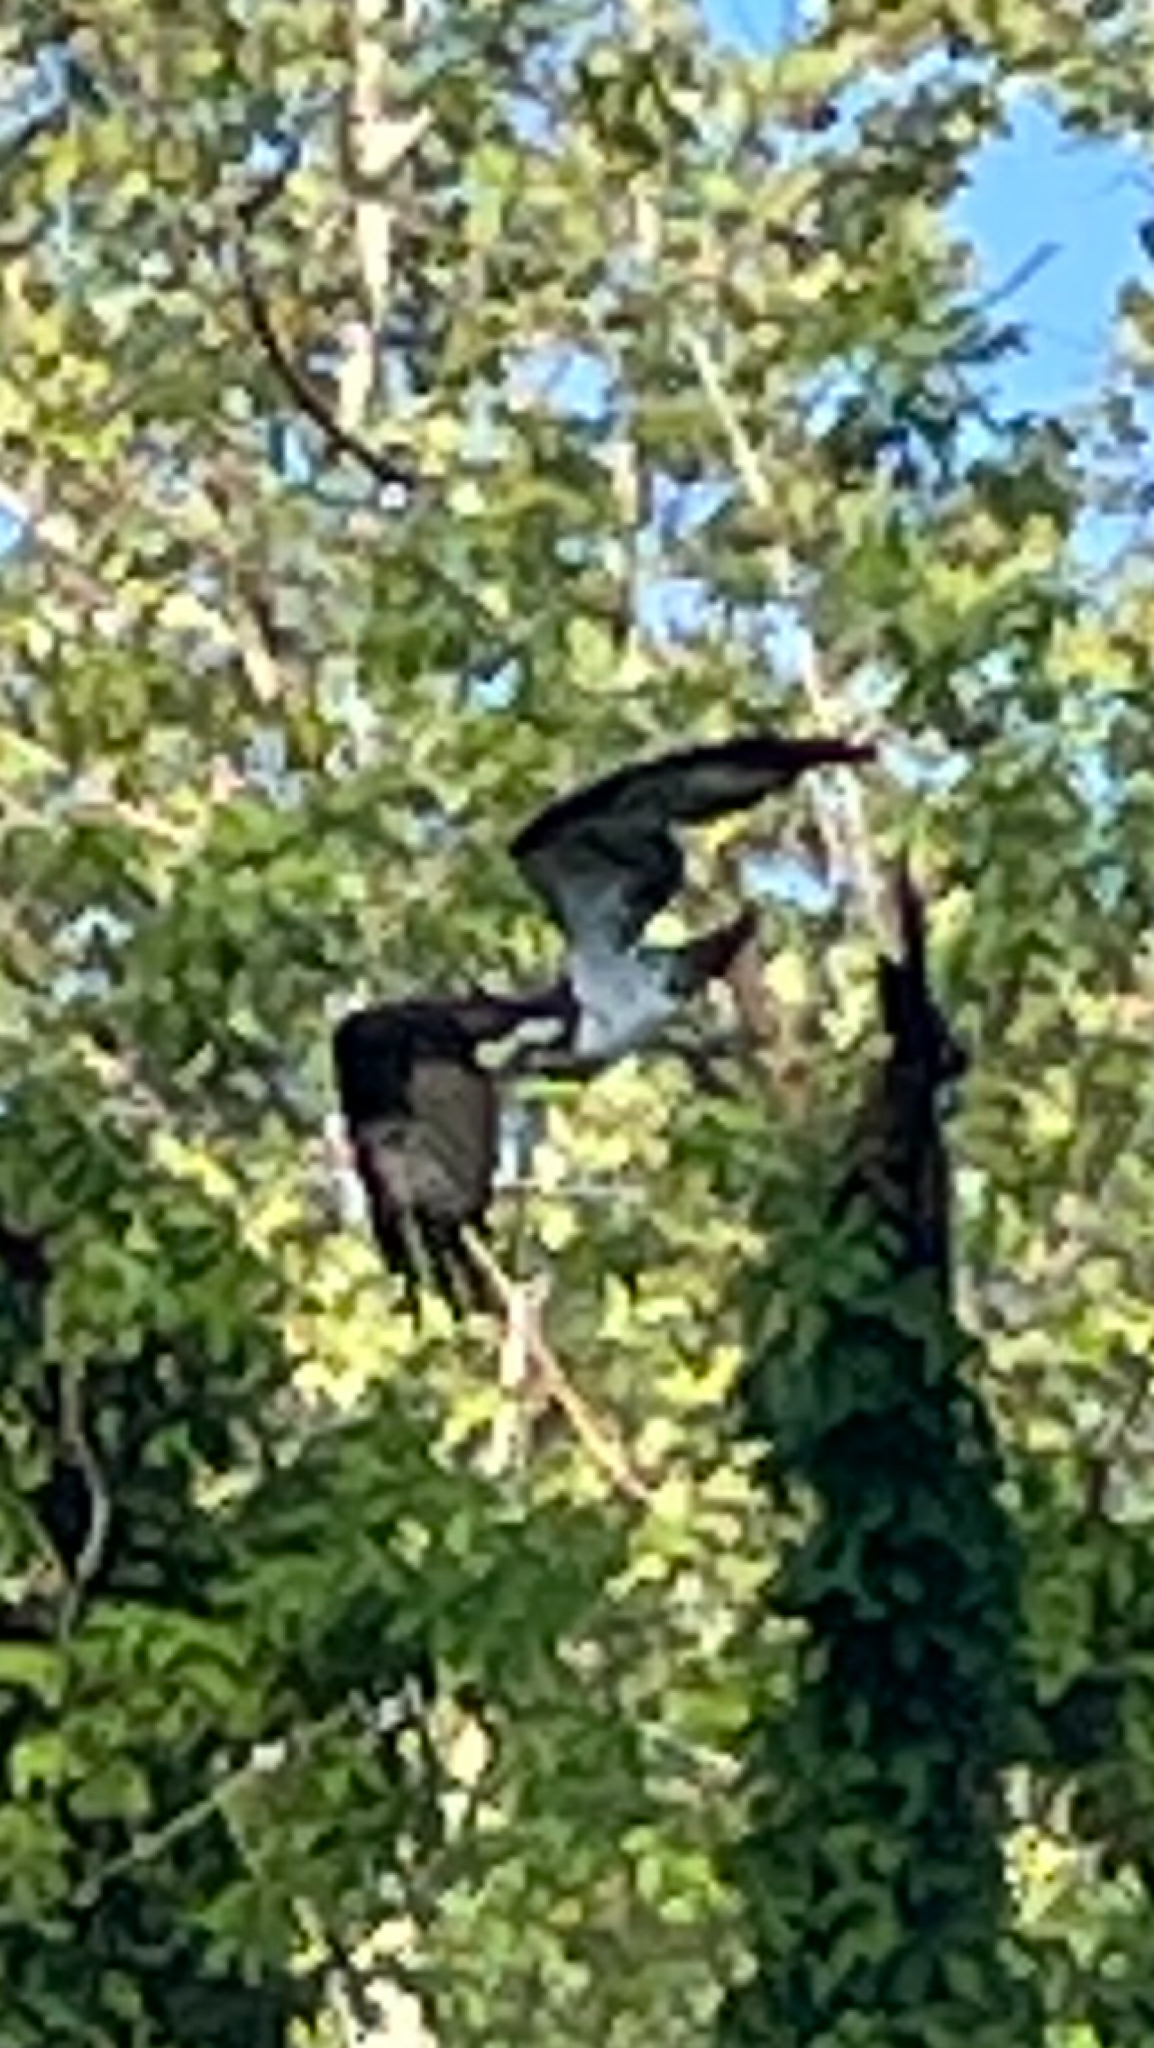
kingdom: Animalia
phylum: Chordata
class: Aves
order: Accipitriformes
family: Pandionidae
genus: Pandion
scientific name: Pandion haliaetus
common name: Osprey
